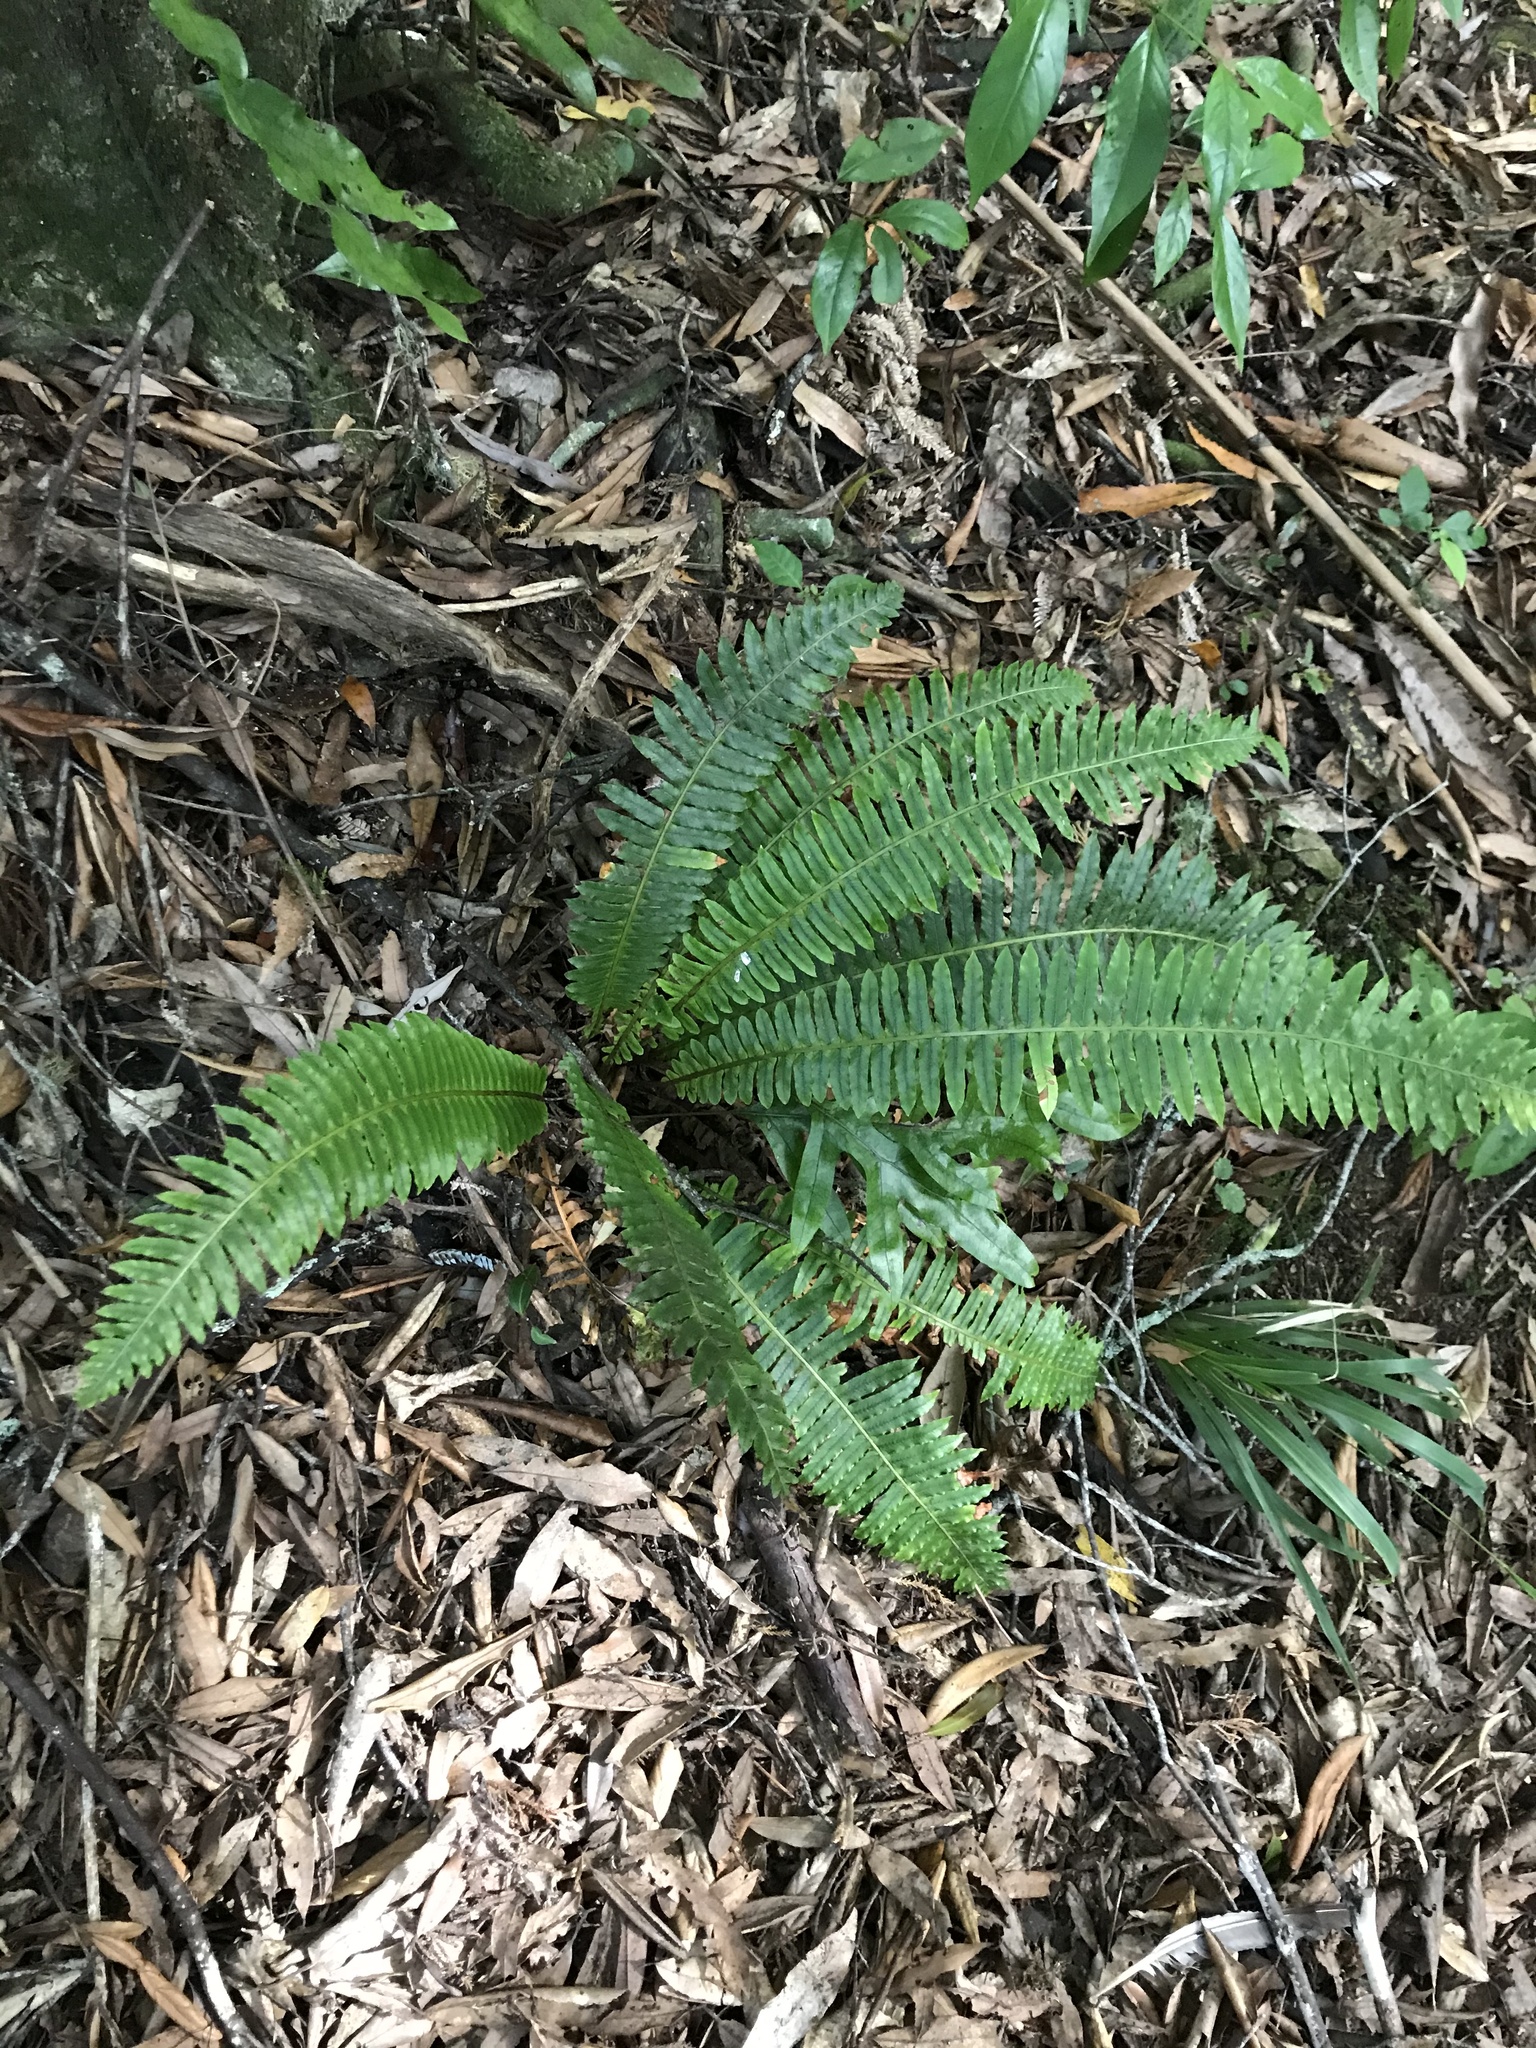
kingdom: Plantae
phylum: Tracheophyta
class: Polypodiopsida
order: Polypodiales
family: Blechnaceae
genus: Lomaria
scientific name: Lomaria discolor
